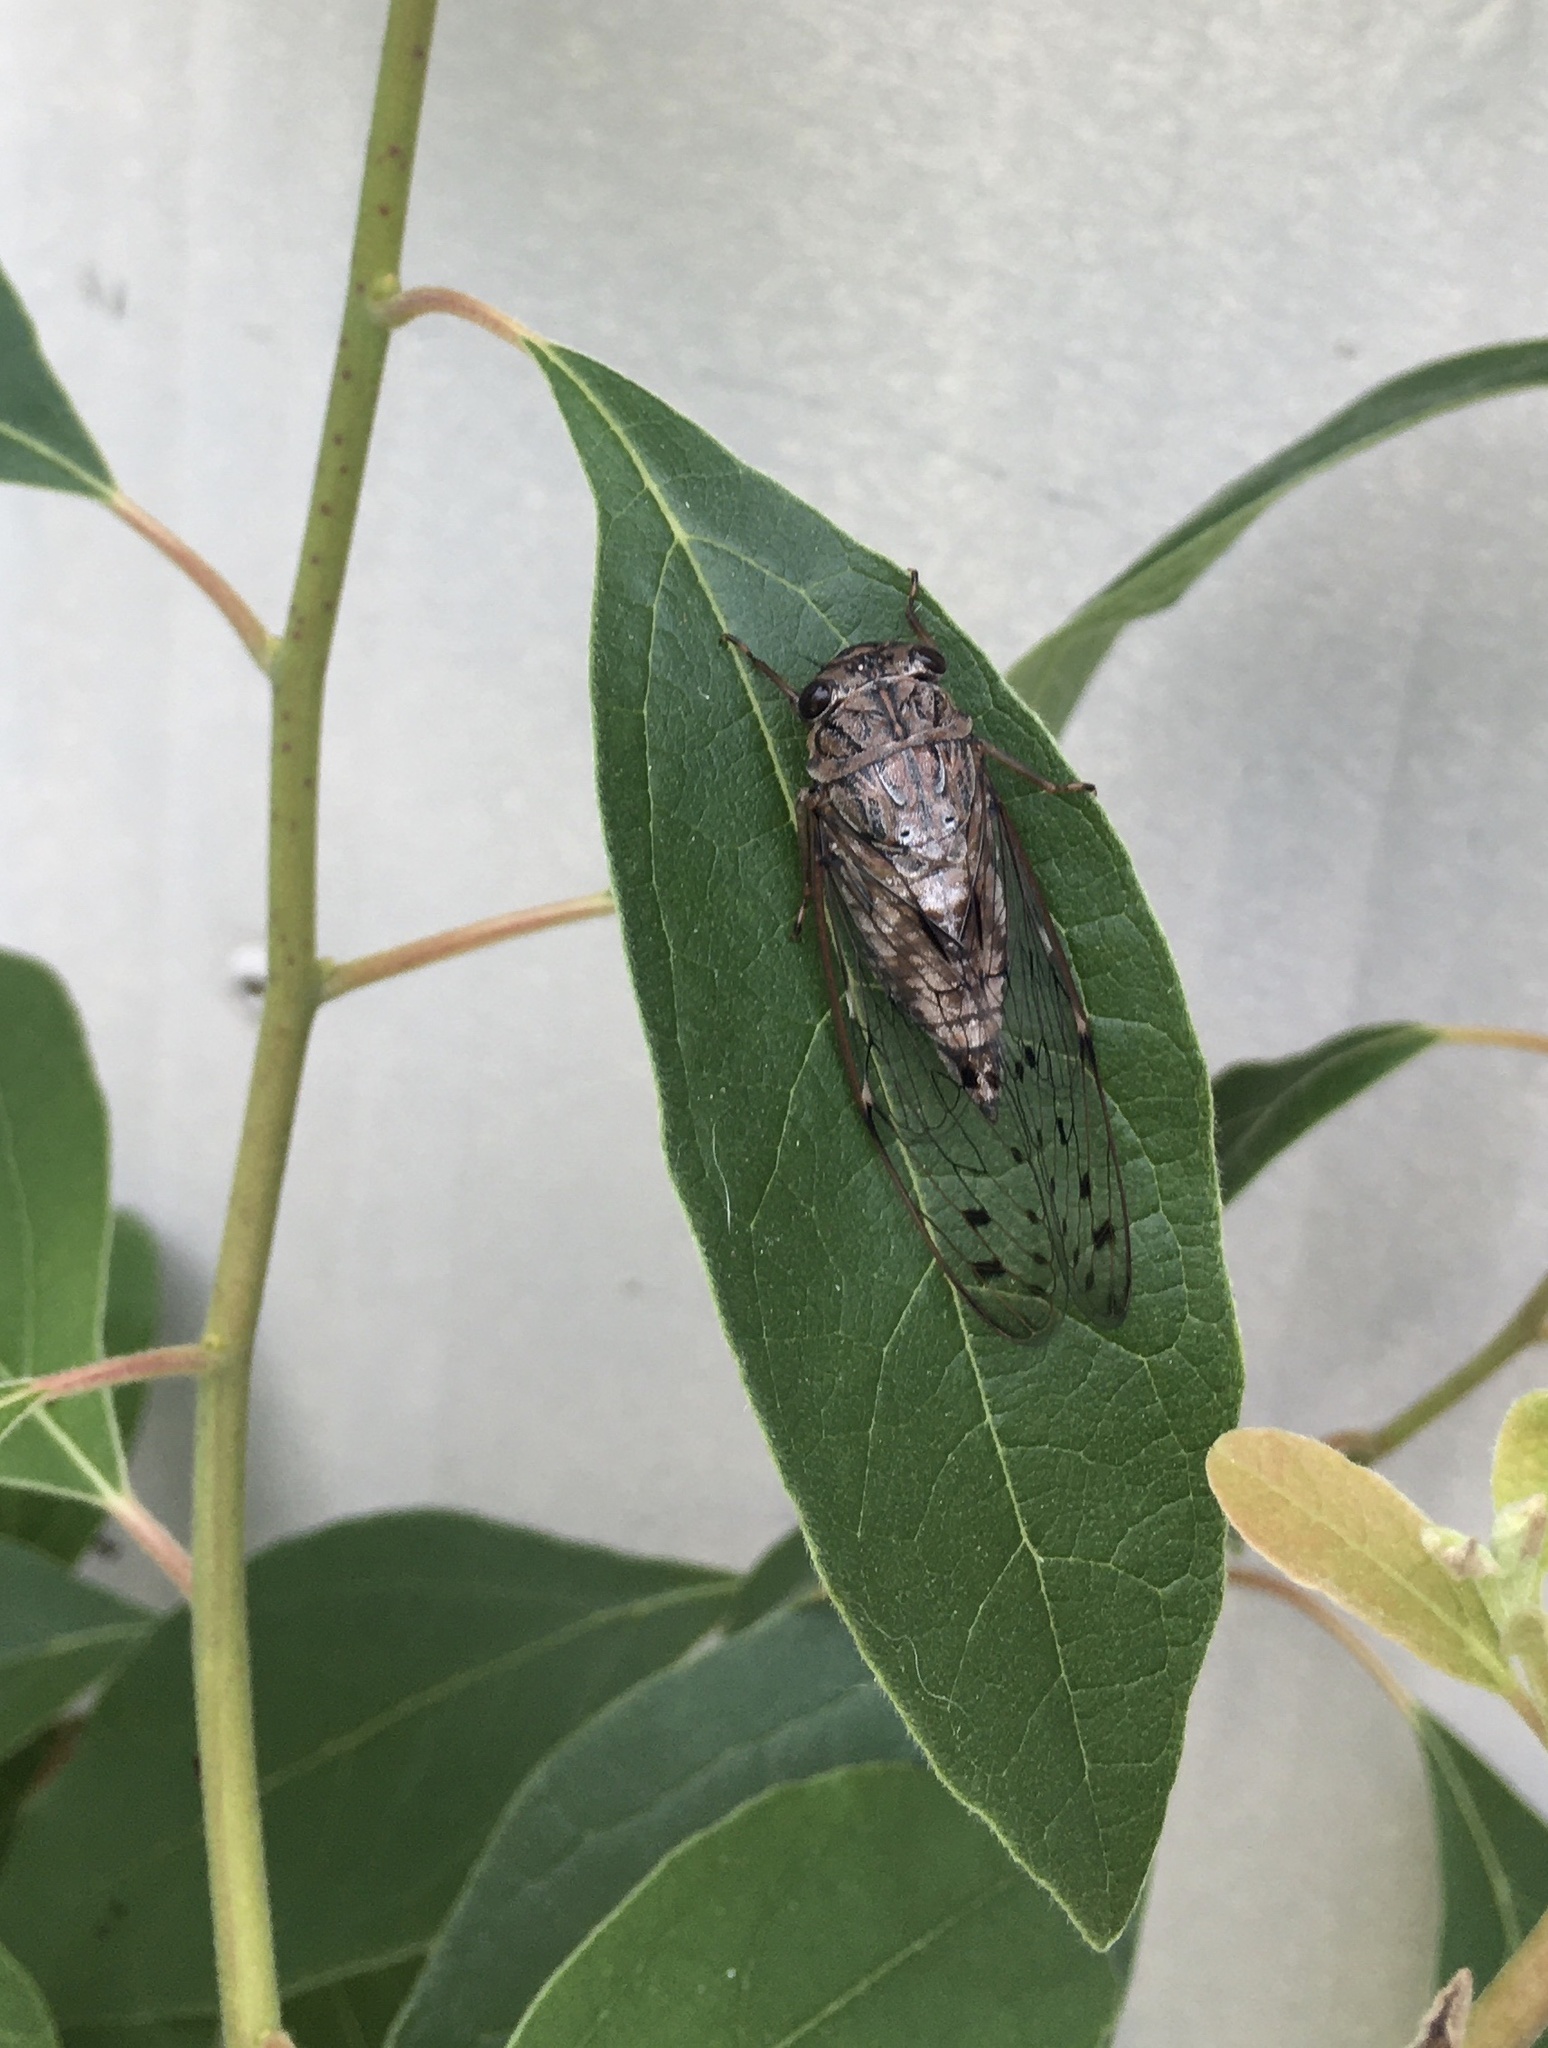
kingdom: Animalia
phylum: Arthropoda
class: Insecta
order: Hemiptera
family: Cicadidae
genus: Neocicada
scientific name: Neocicada hieroglyphica
